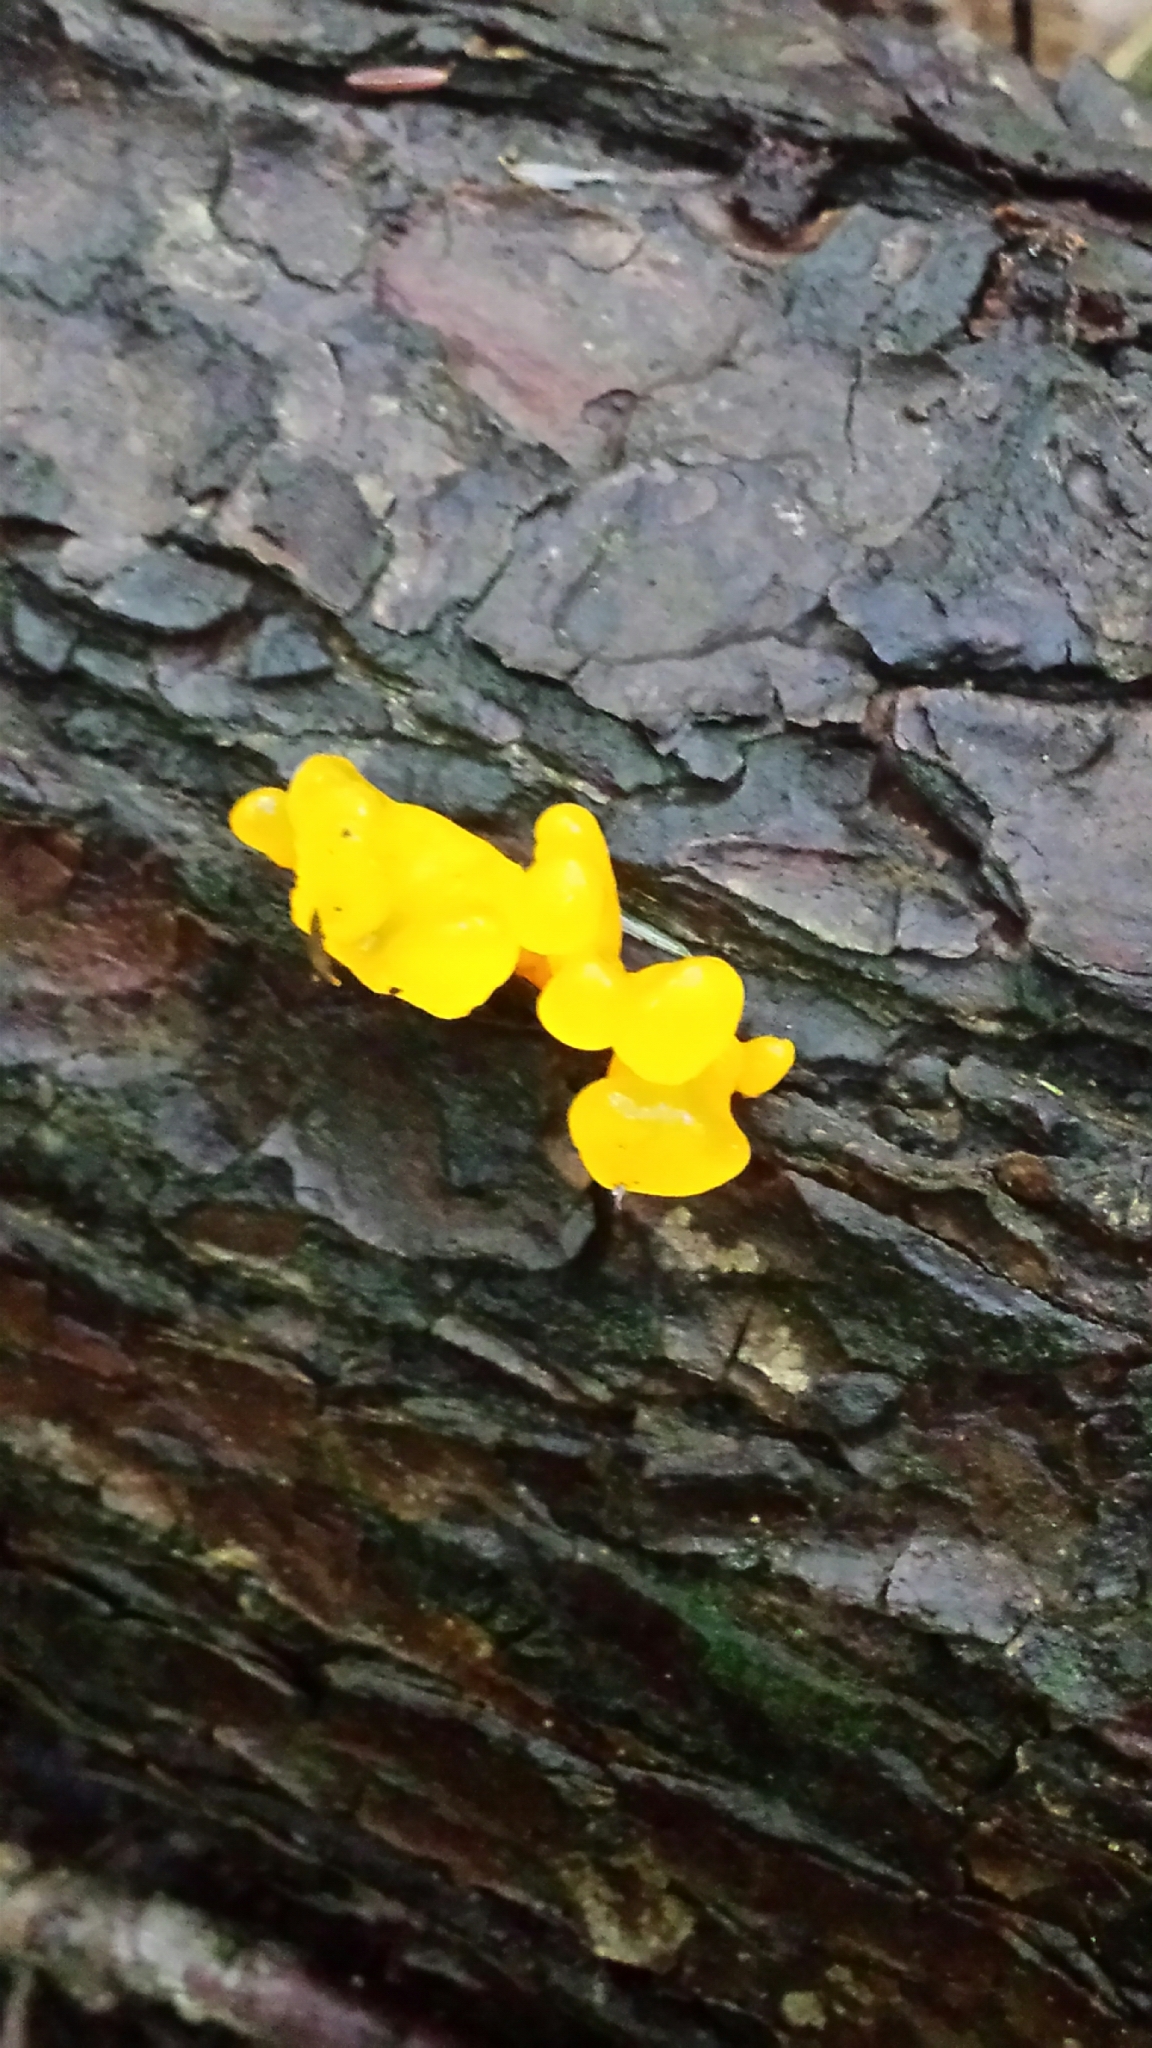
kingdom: Fungi
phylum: Basidiomycota
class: Dacrymycetes
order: Dacrymycetales
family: Dacrymycetaceae
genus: Dacrymyces
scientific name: Dacrymyces chrysospermus
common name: Orange jelly spot
